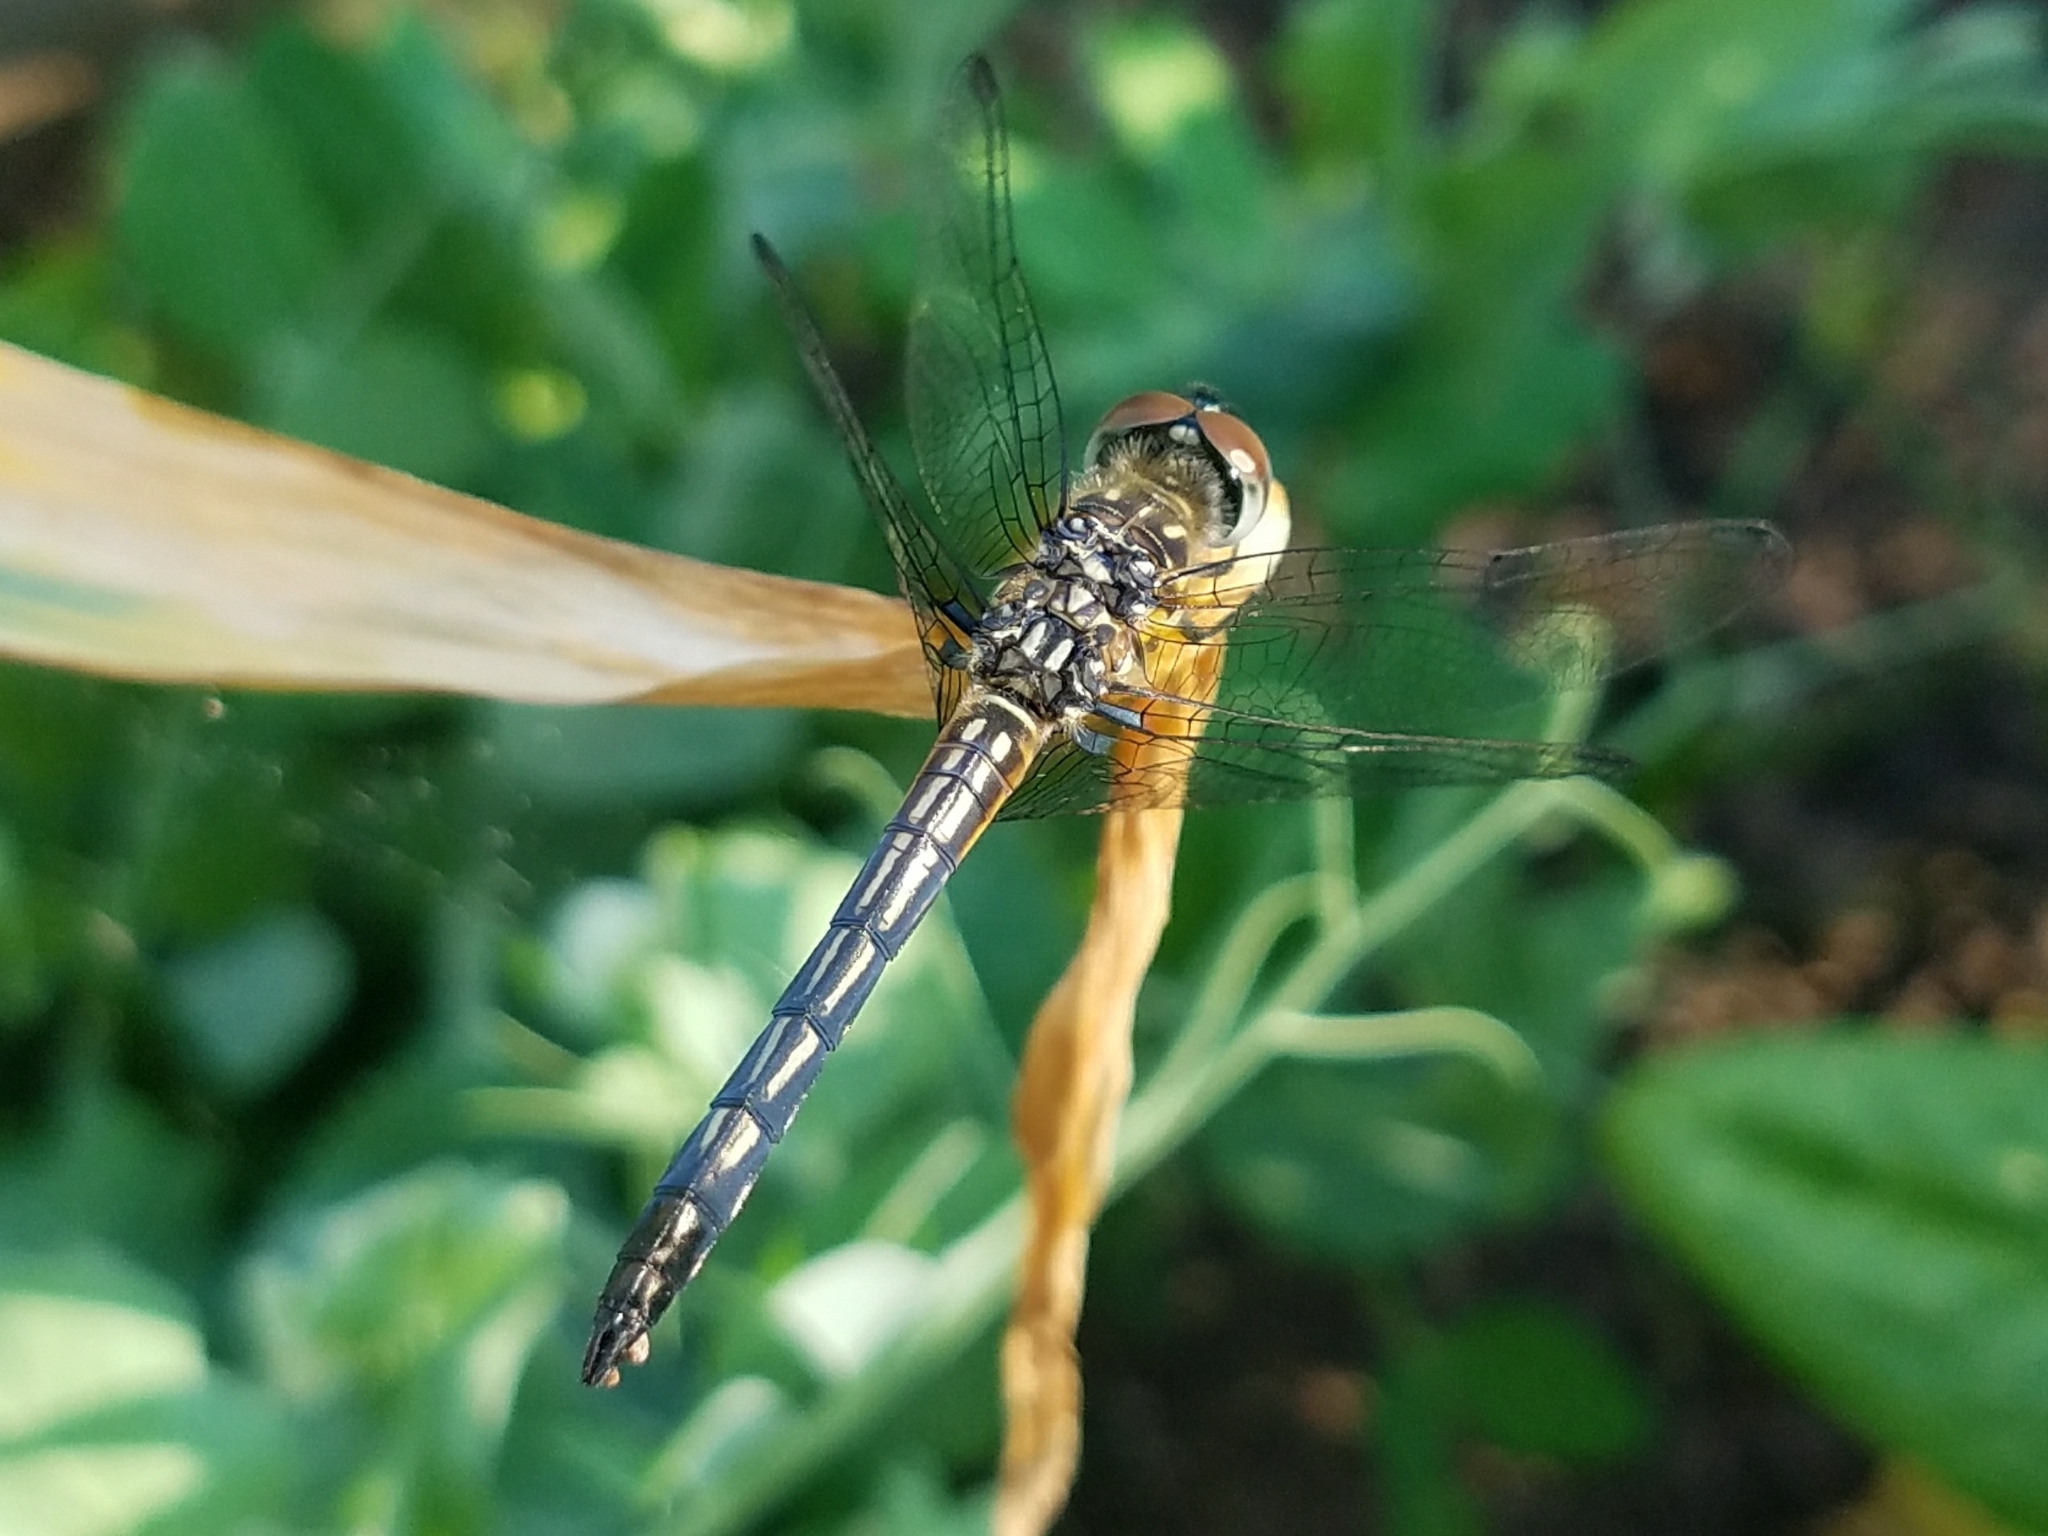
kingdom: Animalia
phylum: Arthropoda
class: Insecta
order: Odonata
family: Libellulidae
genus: Pachydiplax
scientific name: Pachydiplax longipennis
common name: Blue dasher
